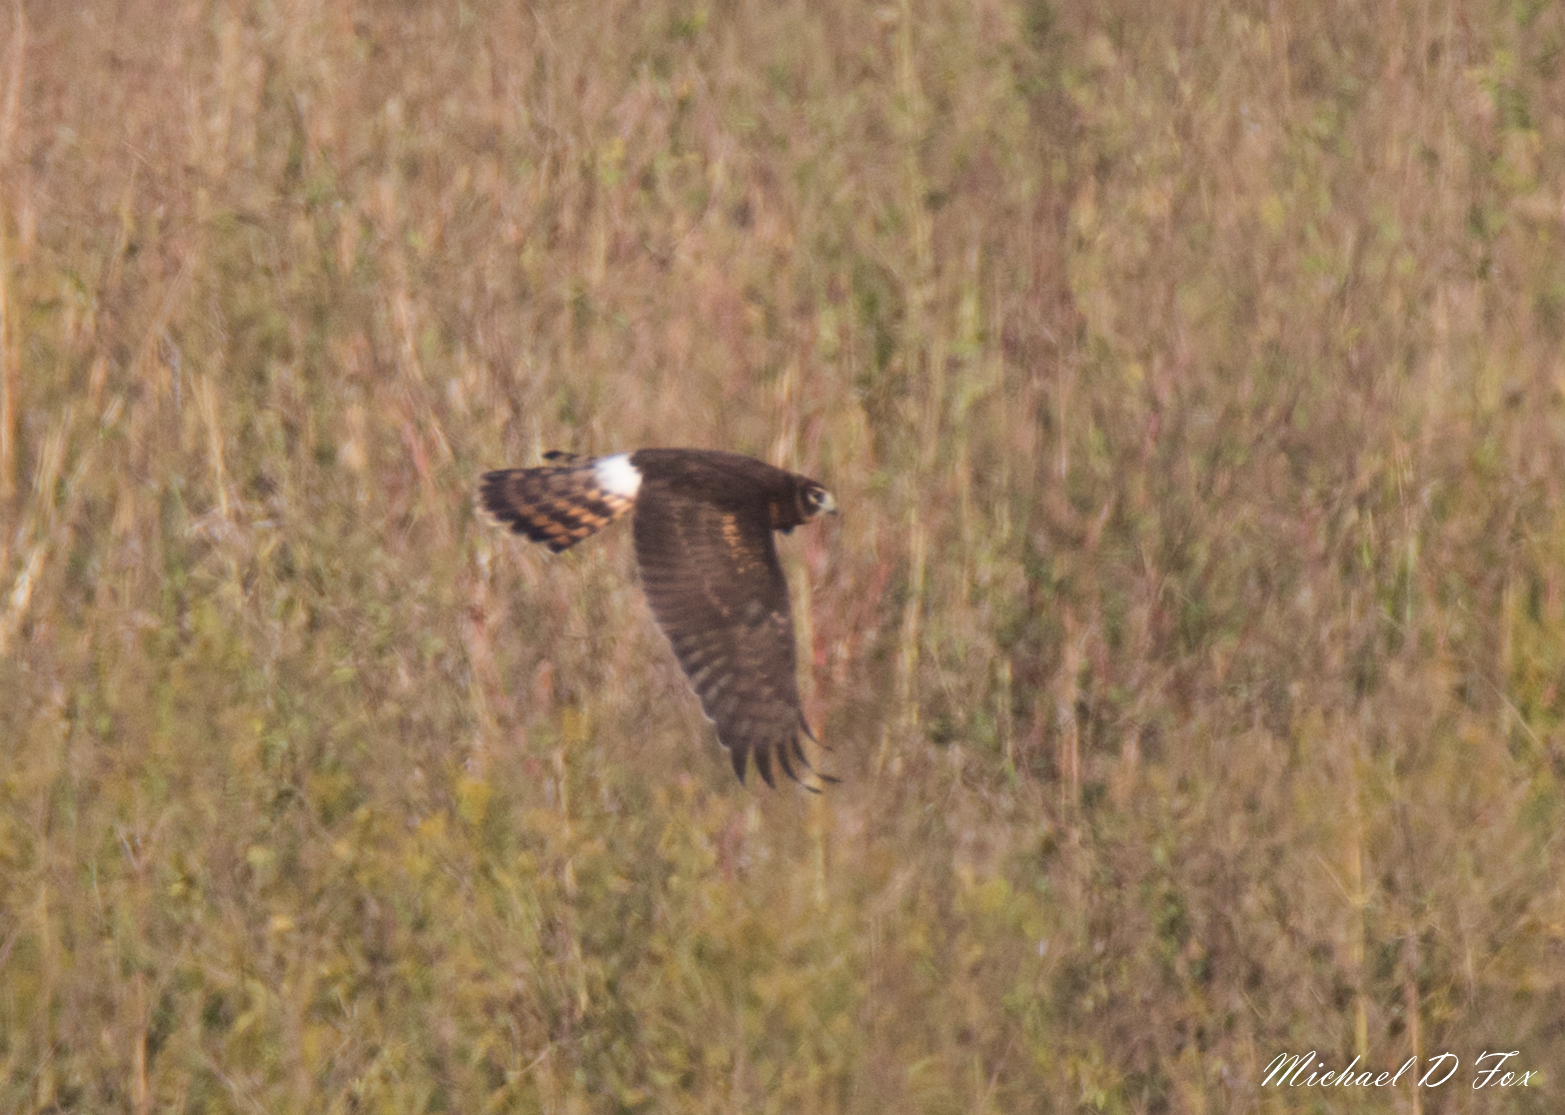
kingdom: Animalia
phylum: Chordata
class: Aves
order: Accipitriformes
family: Accipitridae
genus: Circus
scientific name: Circus cyaneus
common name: Hen harrier
